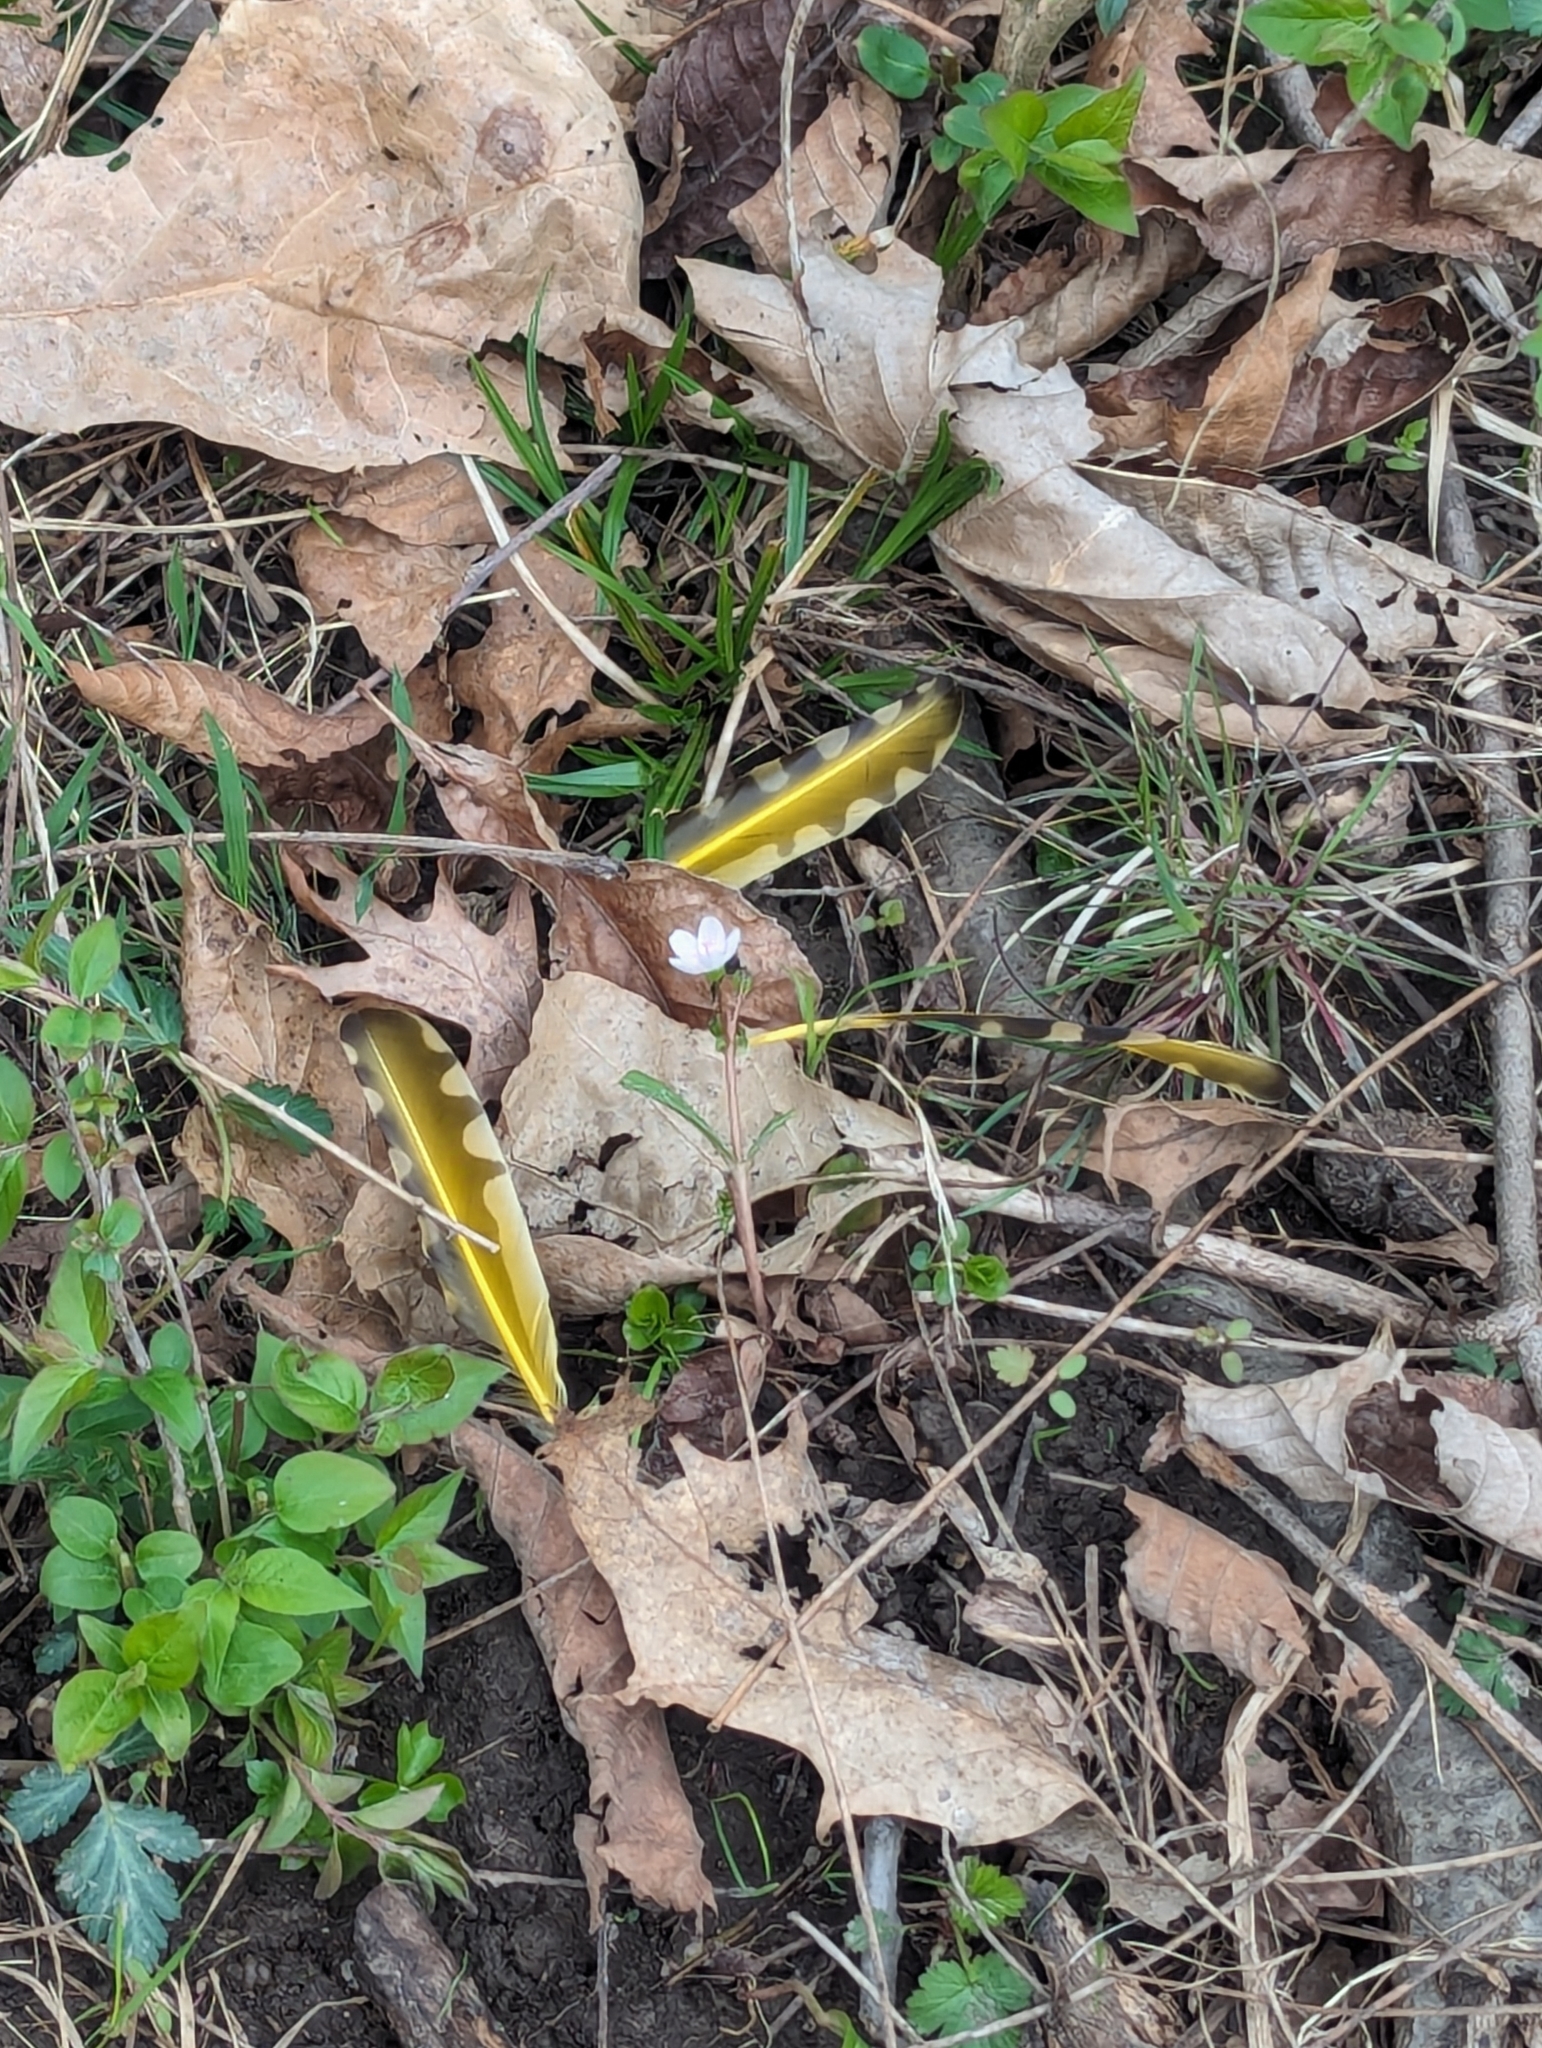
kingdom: Animalia
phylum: Chordata
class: Aves
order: Piciformes
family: Picidae
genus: Colaptes
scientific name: Colaptes auratus
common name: Northern flicker
